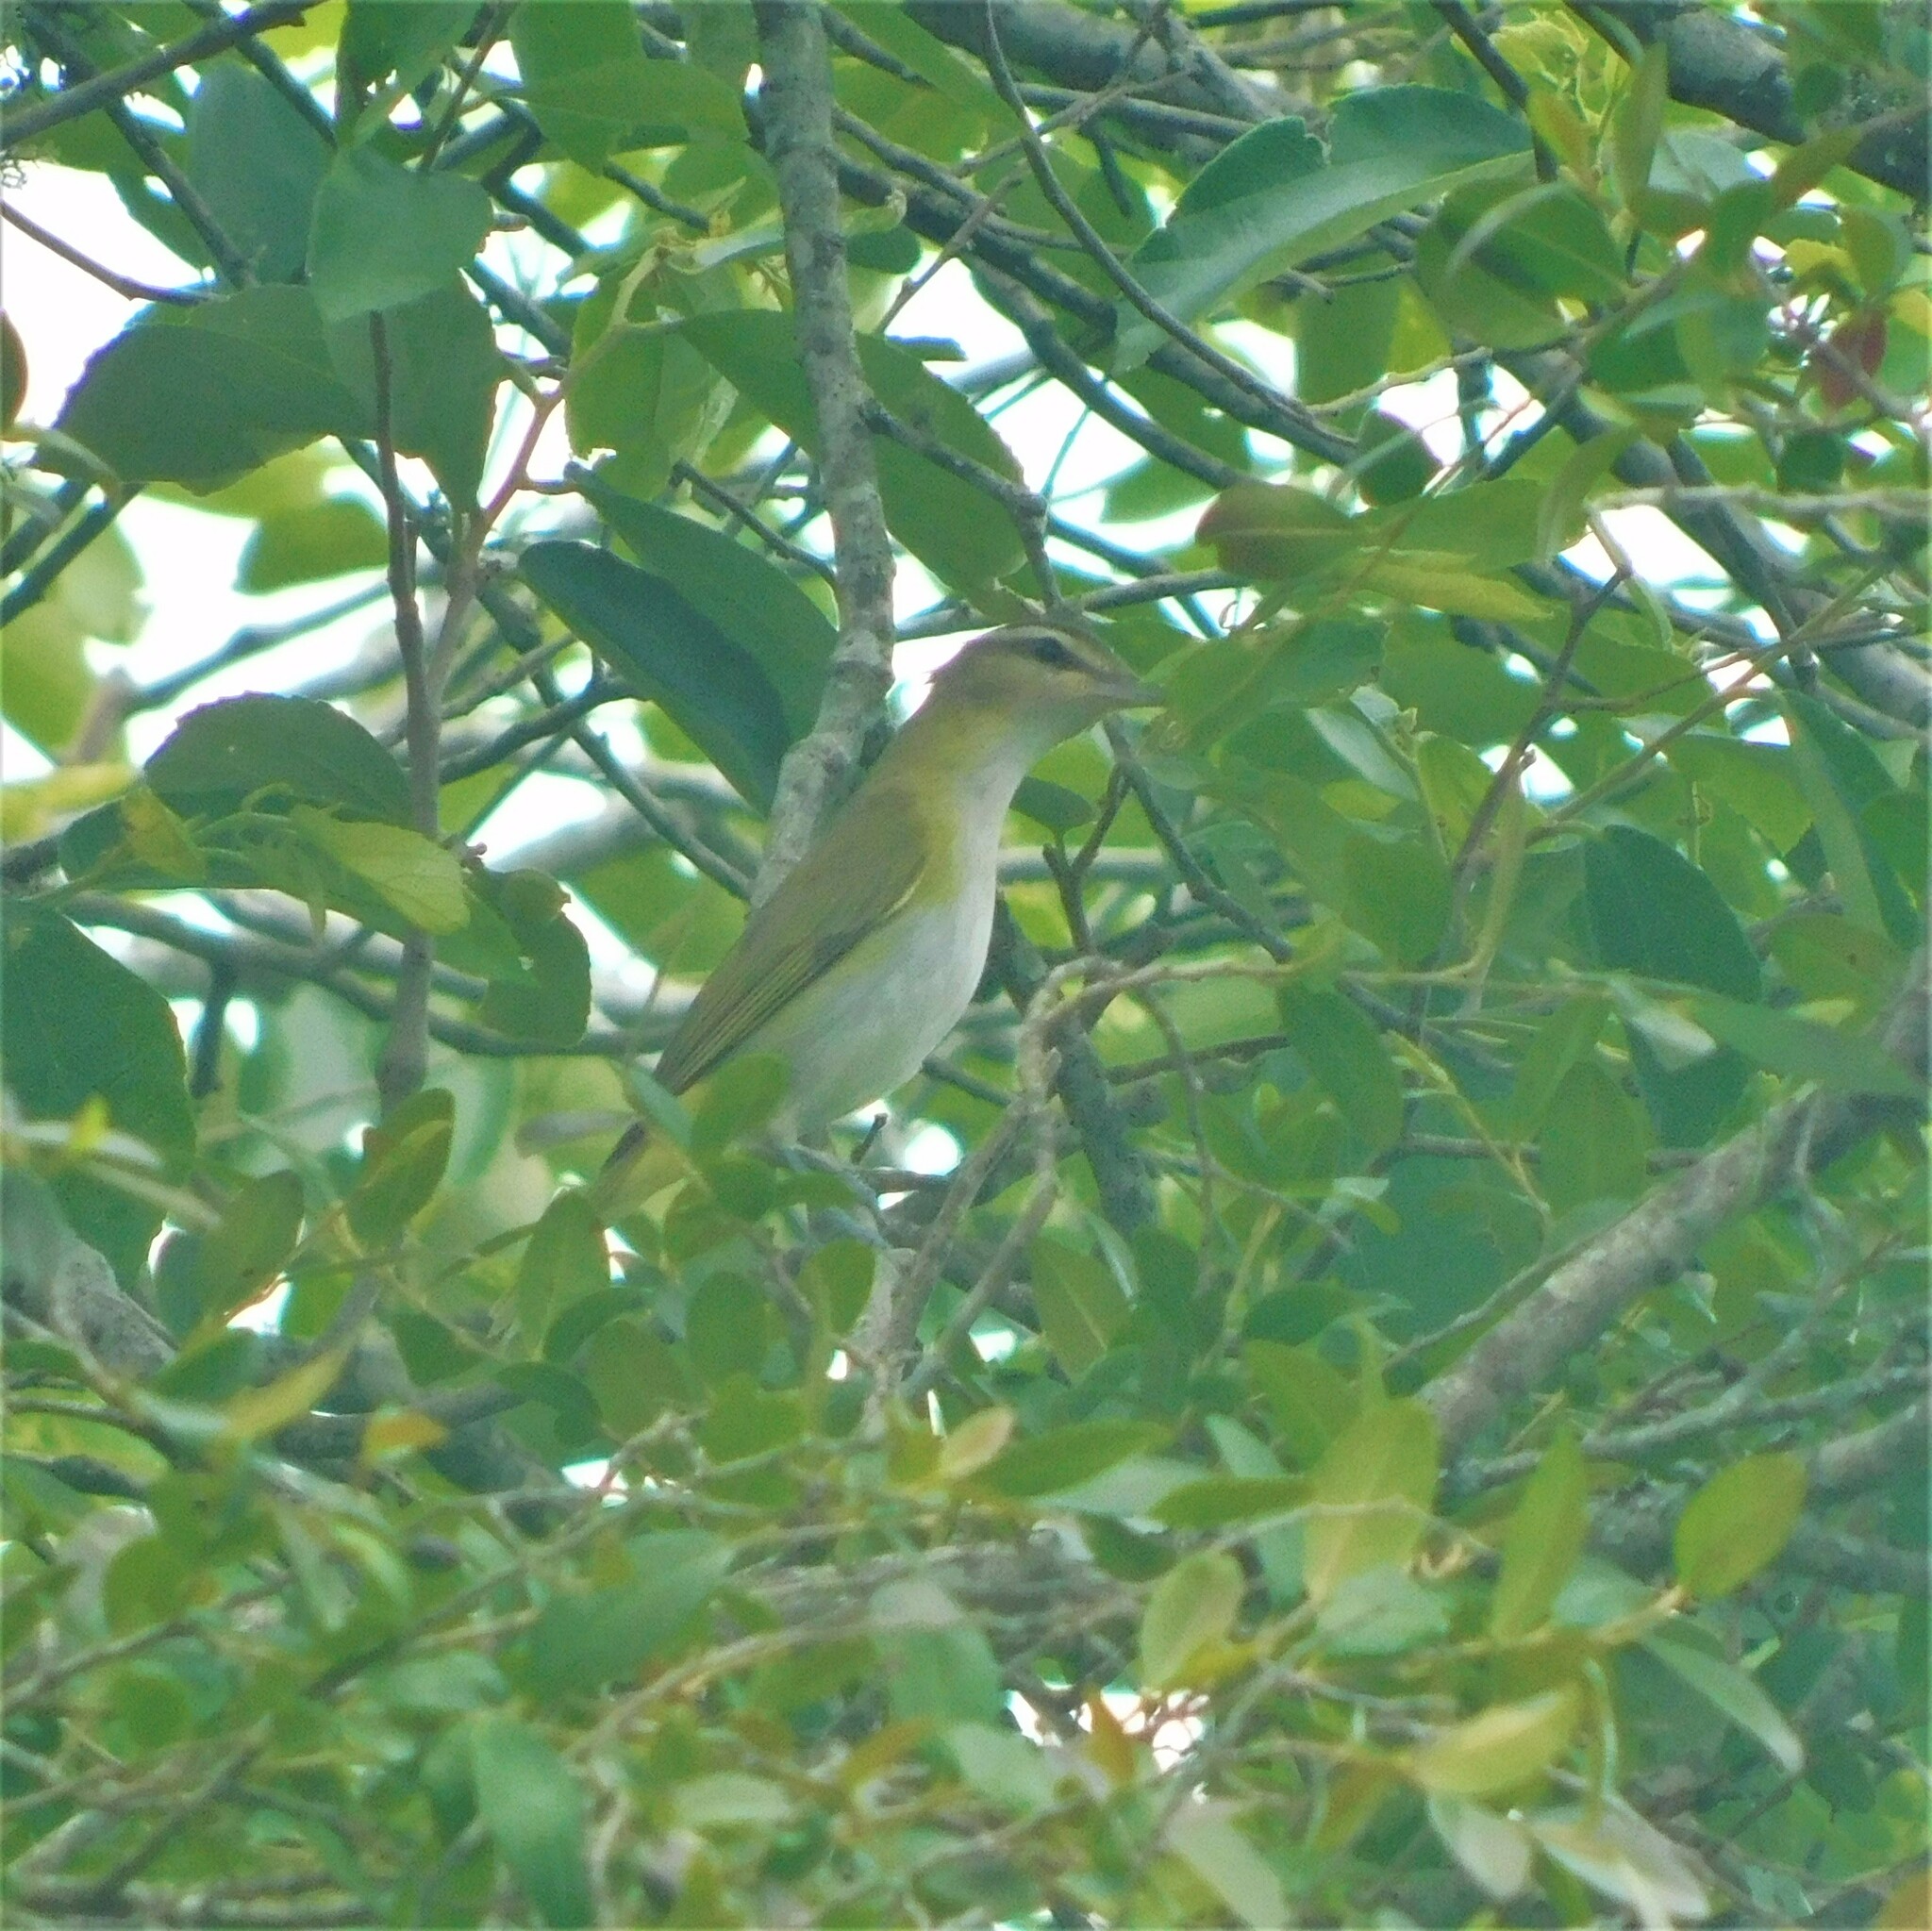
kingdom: Animalia
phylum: Chordata
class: Aves
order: Passeriformes
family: Vireonidae
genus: Vireo
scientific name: Vireo olivaceus
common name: Red-eyed vireo
